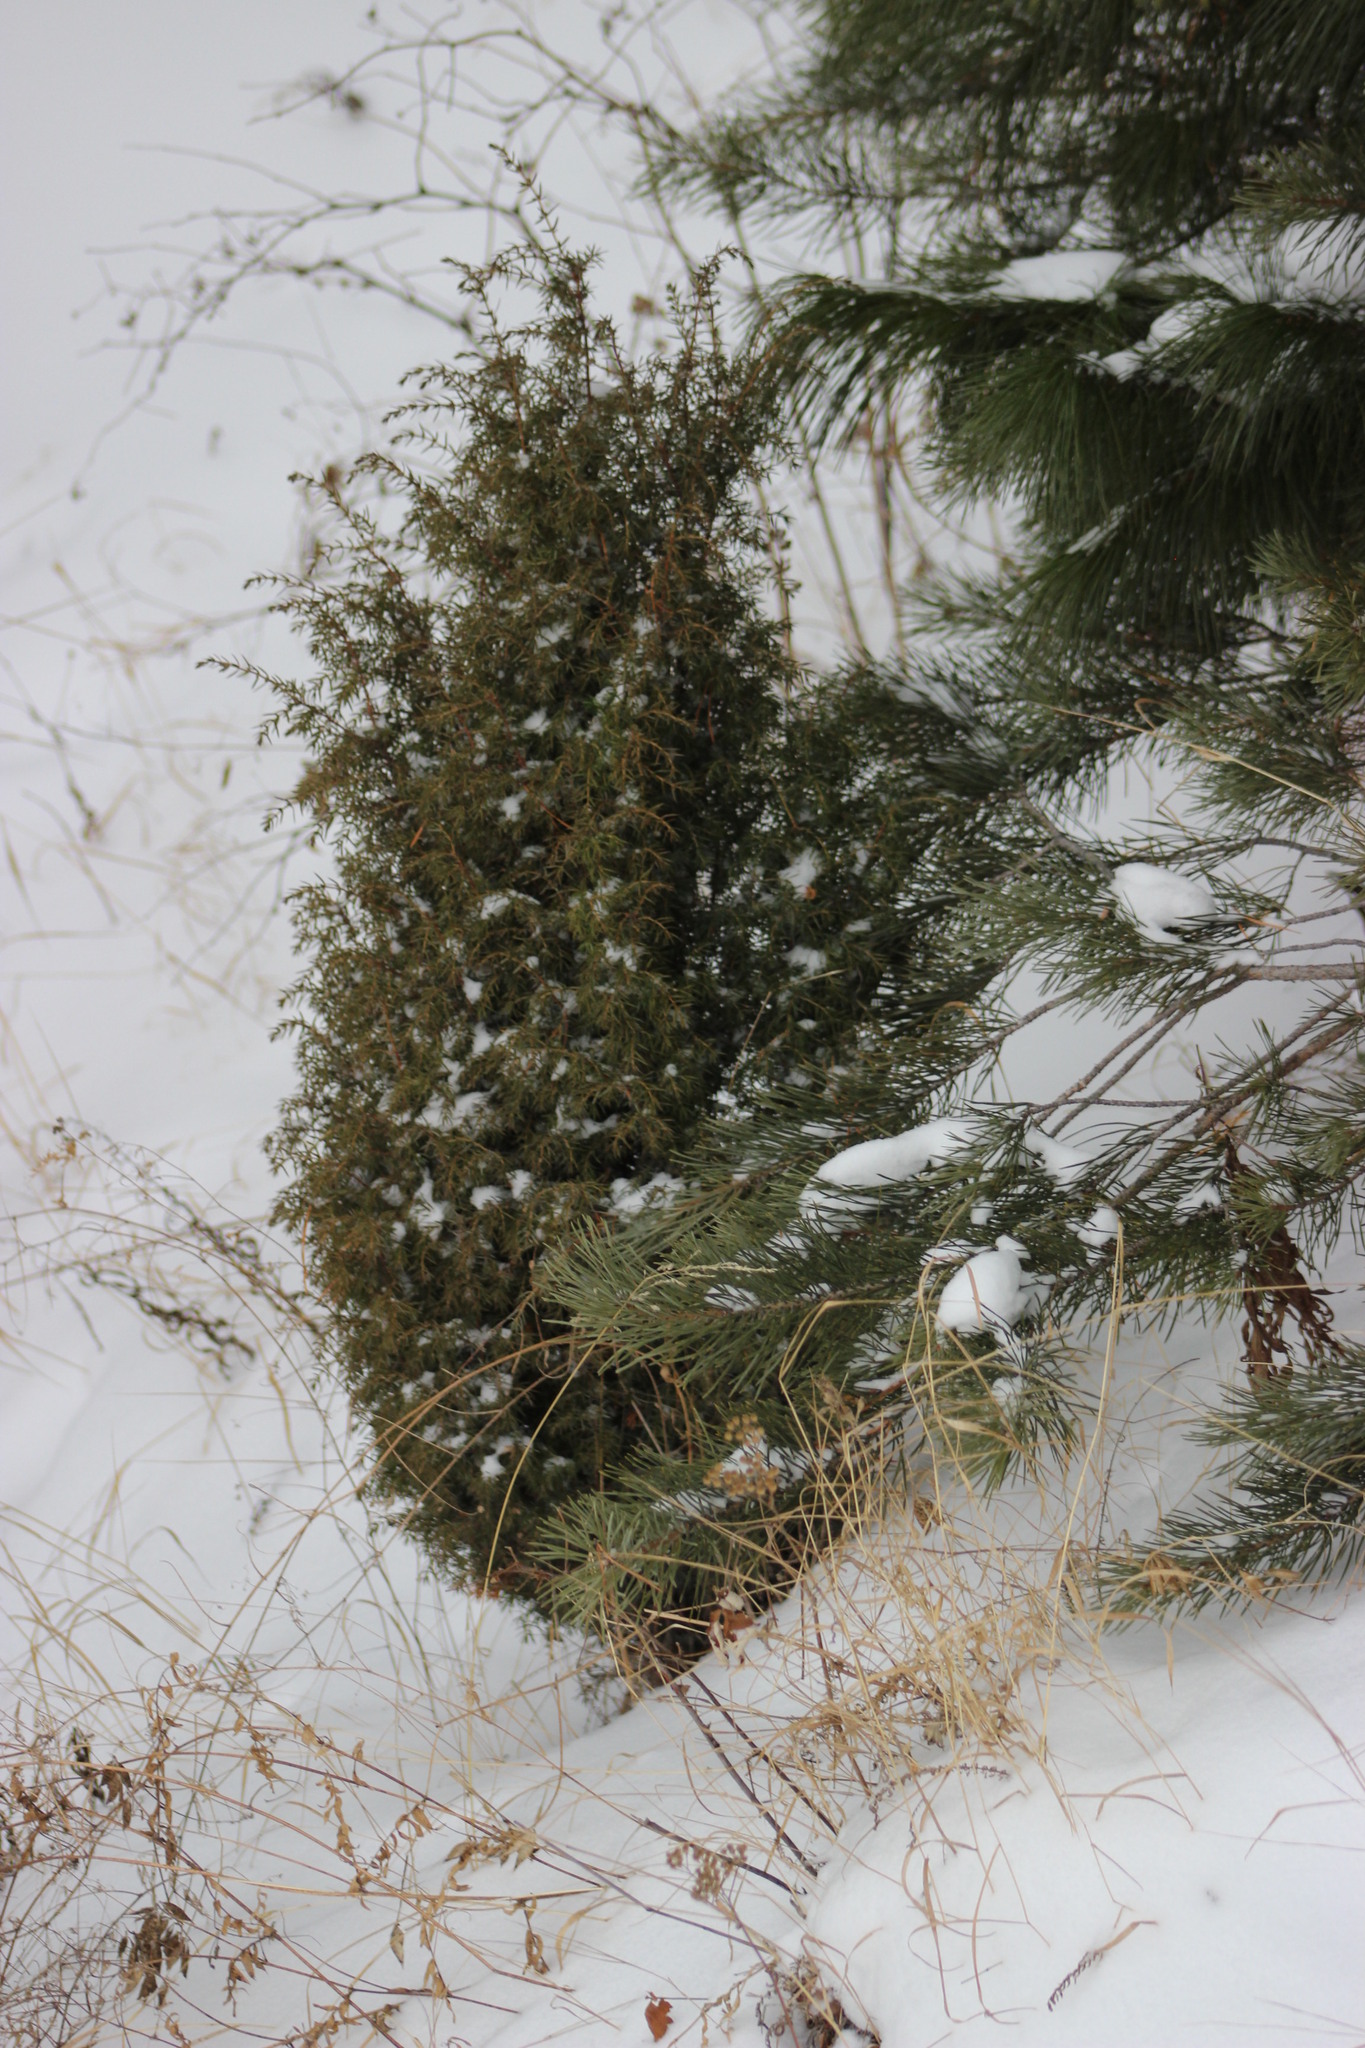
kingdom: Plantae
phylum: Tracheophyta
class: Pinopsida
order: Pinales
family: Cupressaceae
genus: Juniperus
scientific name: Juniperus communis
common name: Common juniper
